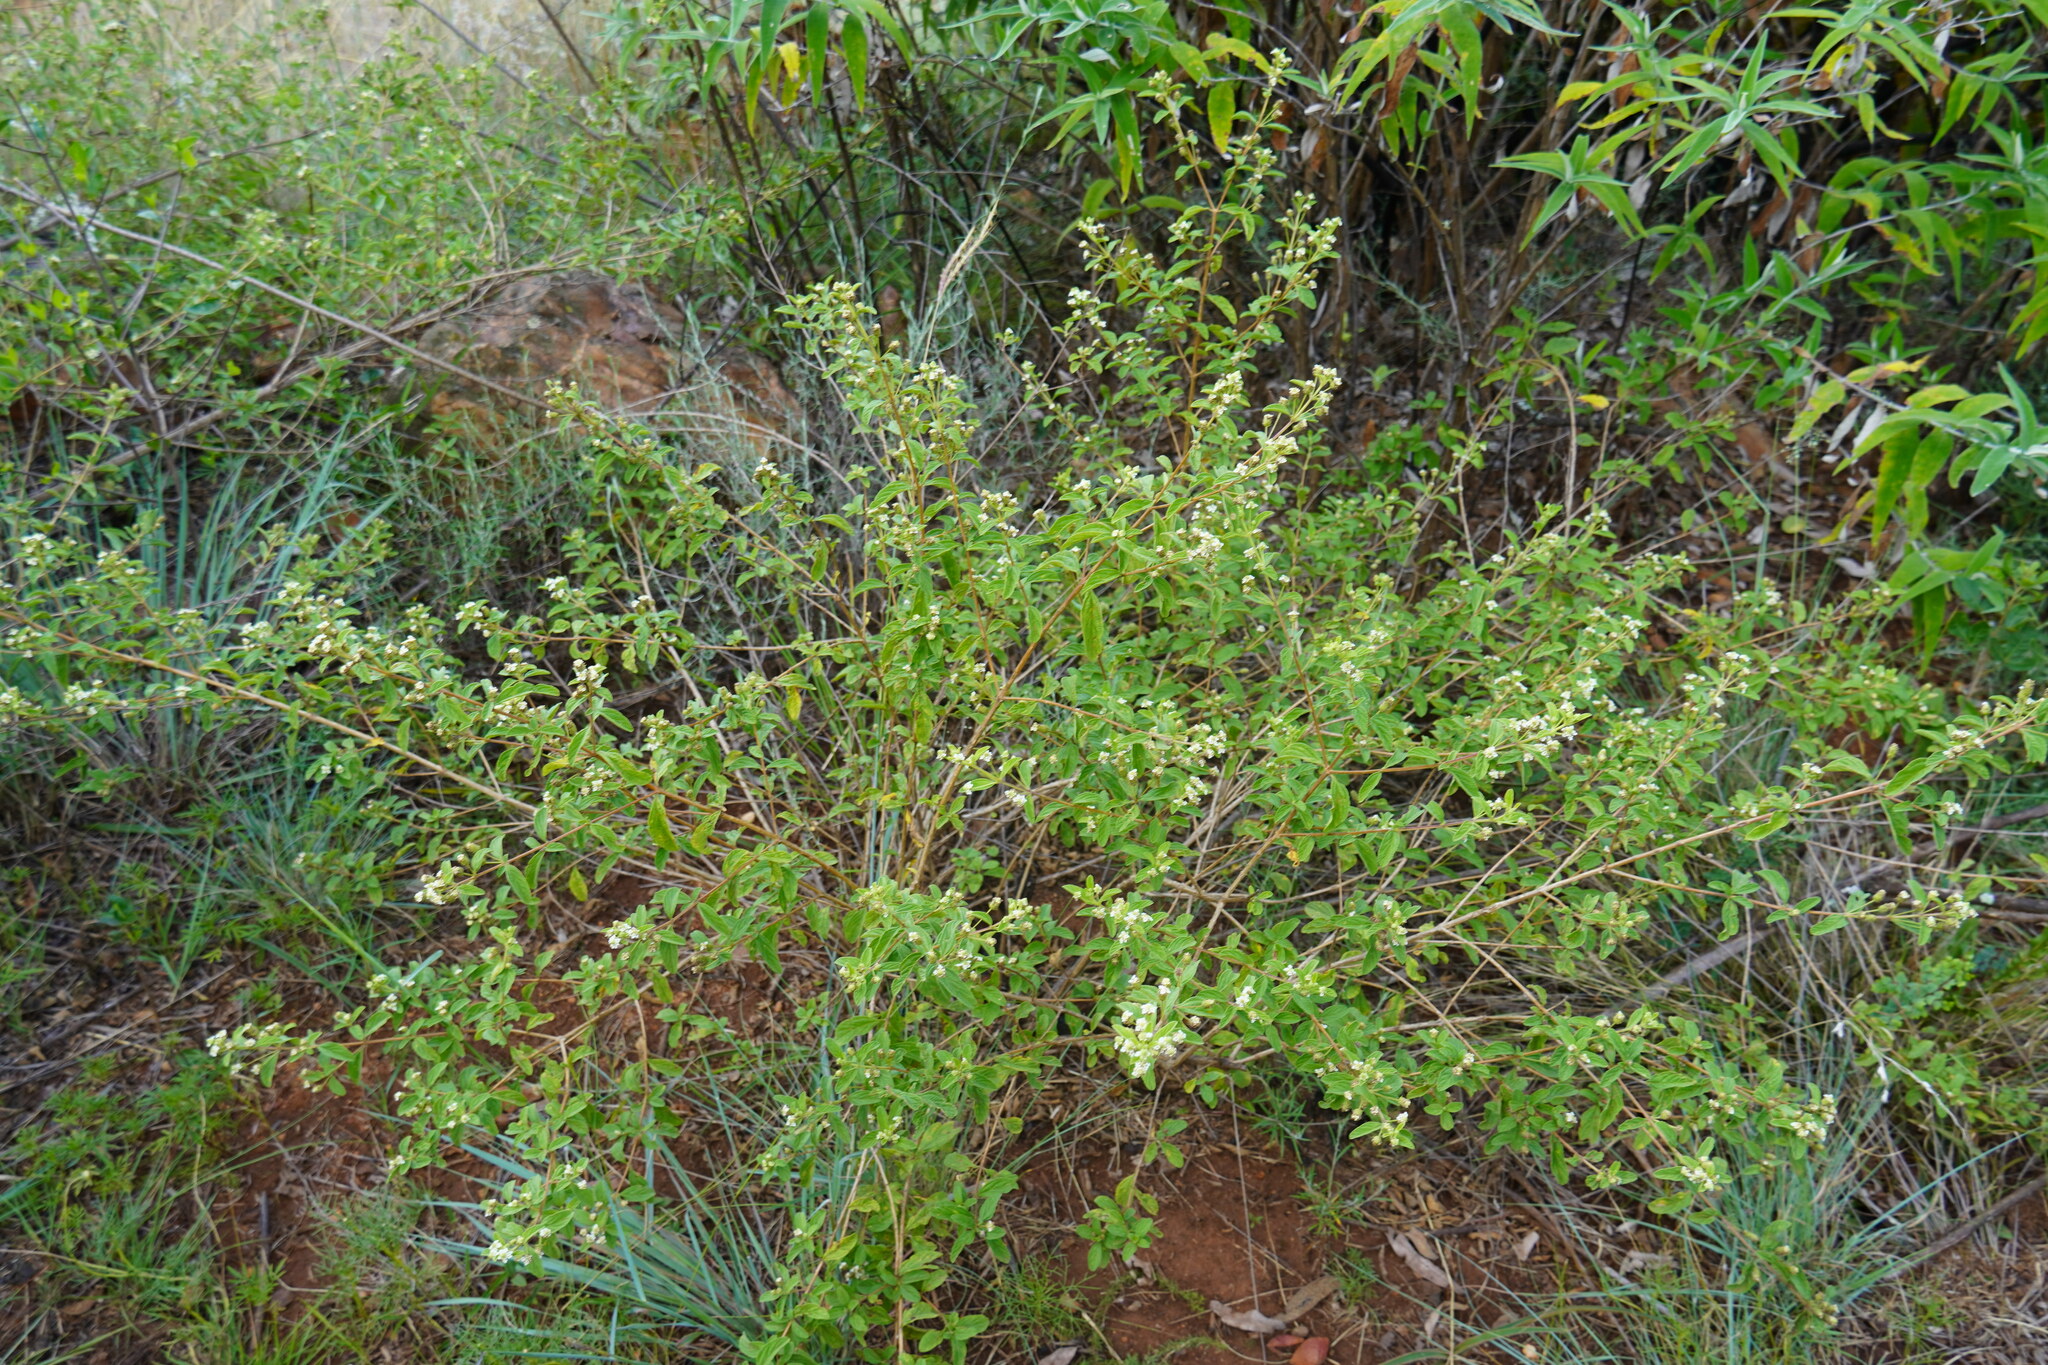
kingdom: Plantae
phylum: Tracheophyta
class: Magnoliopsida
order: Lamiales
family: Verbenaceae
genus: Lippia
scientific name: Lippia javanica
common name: Lemonbush
